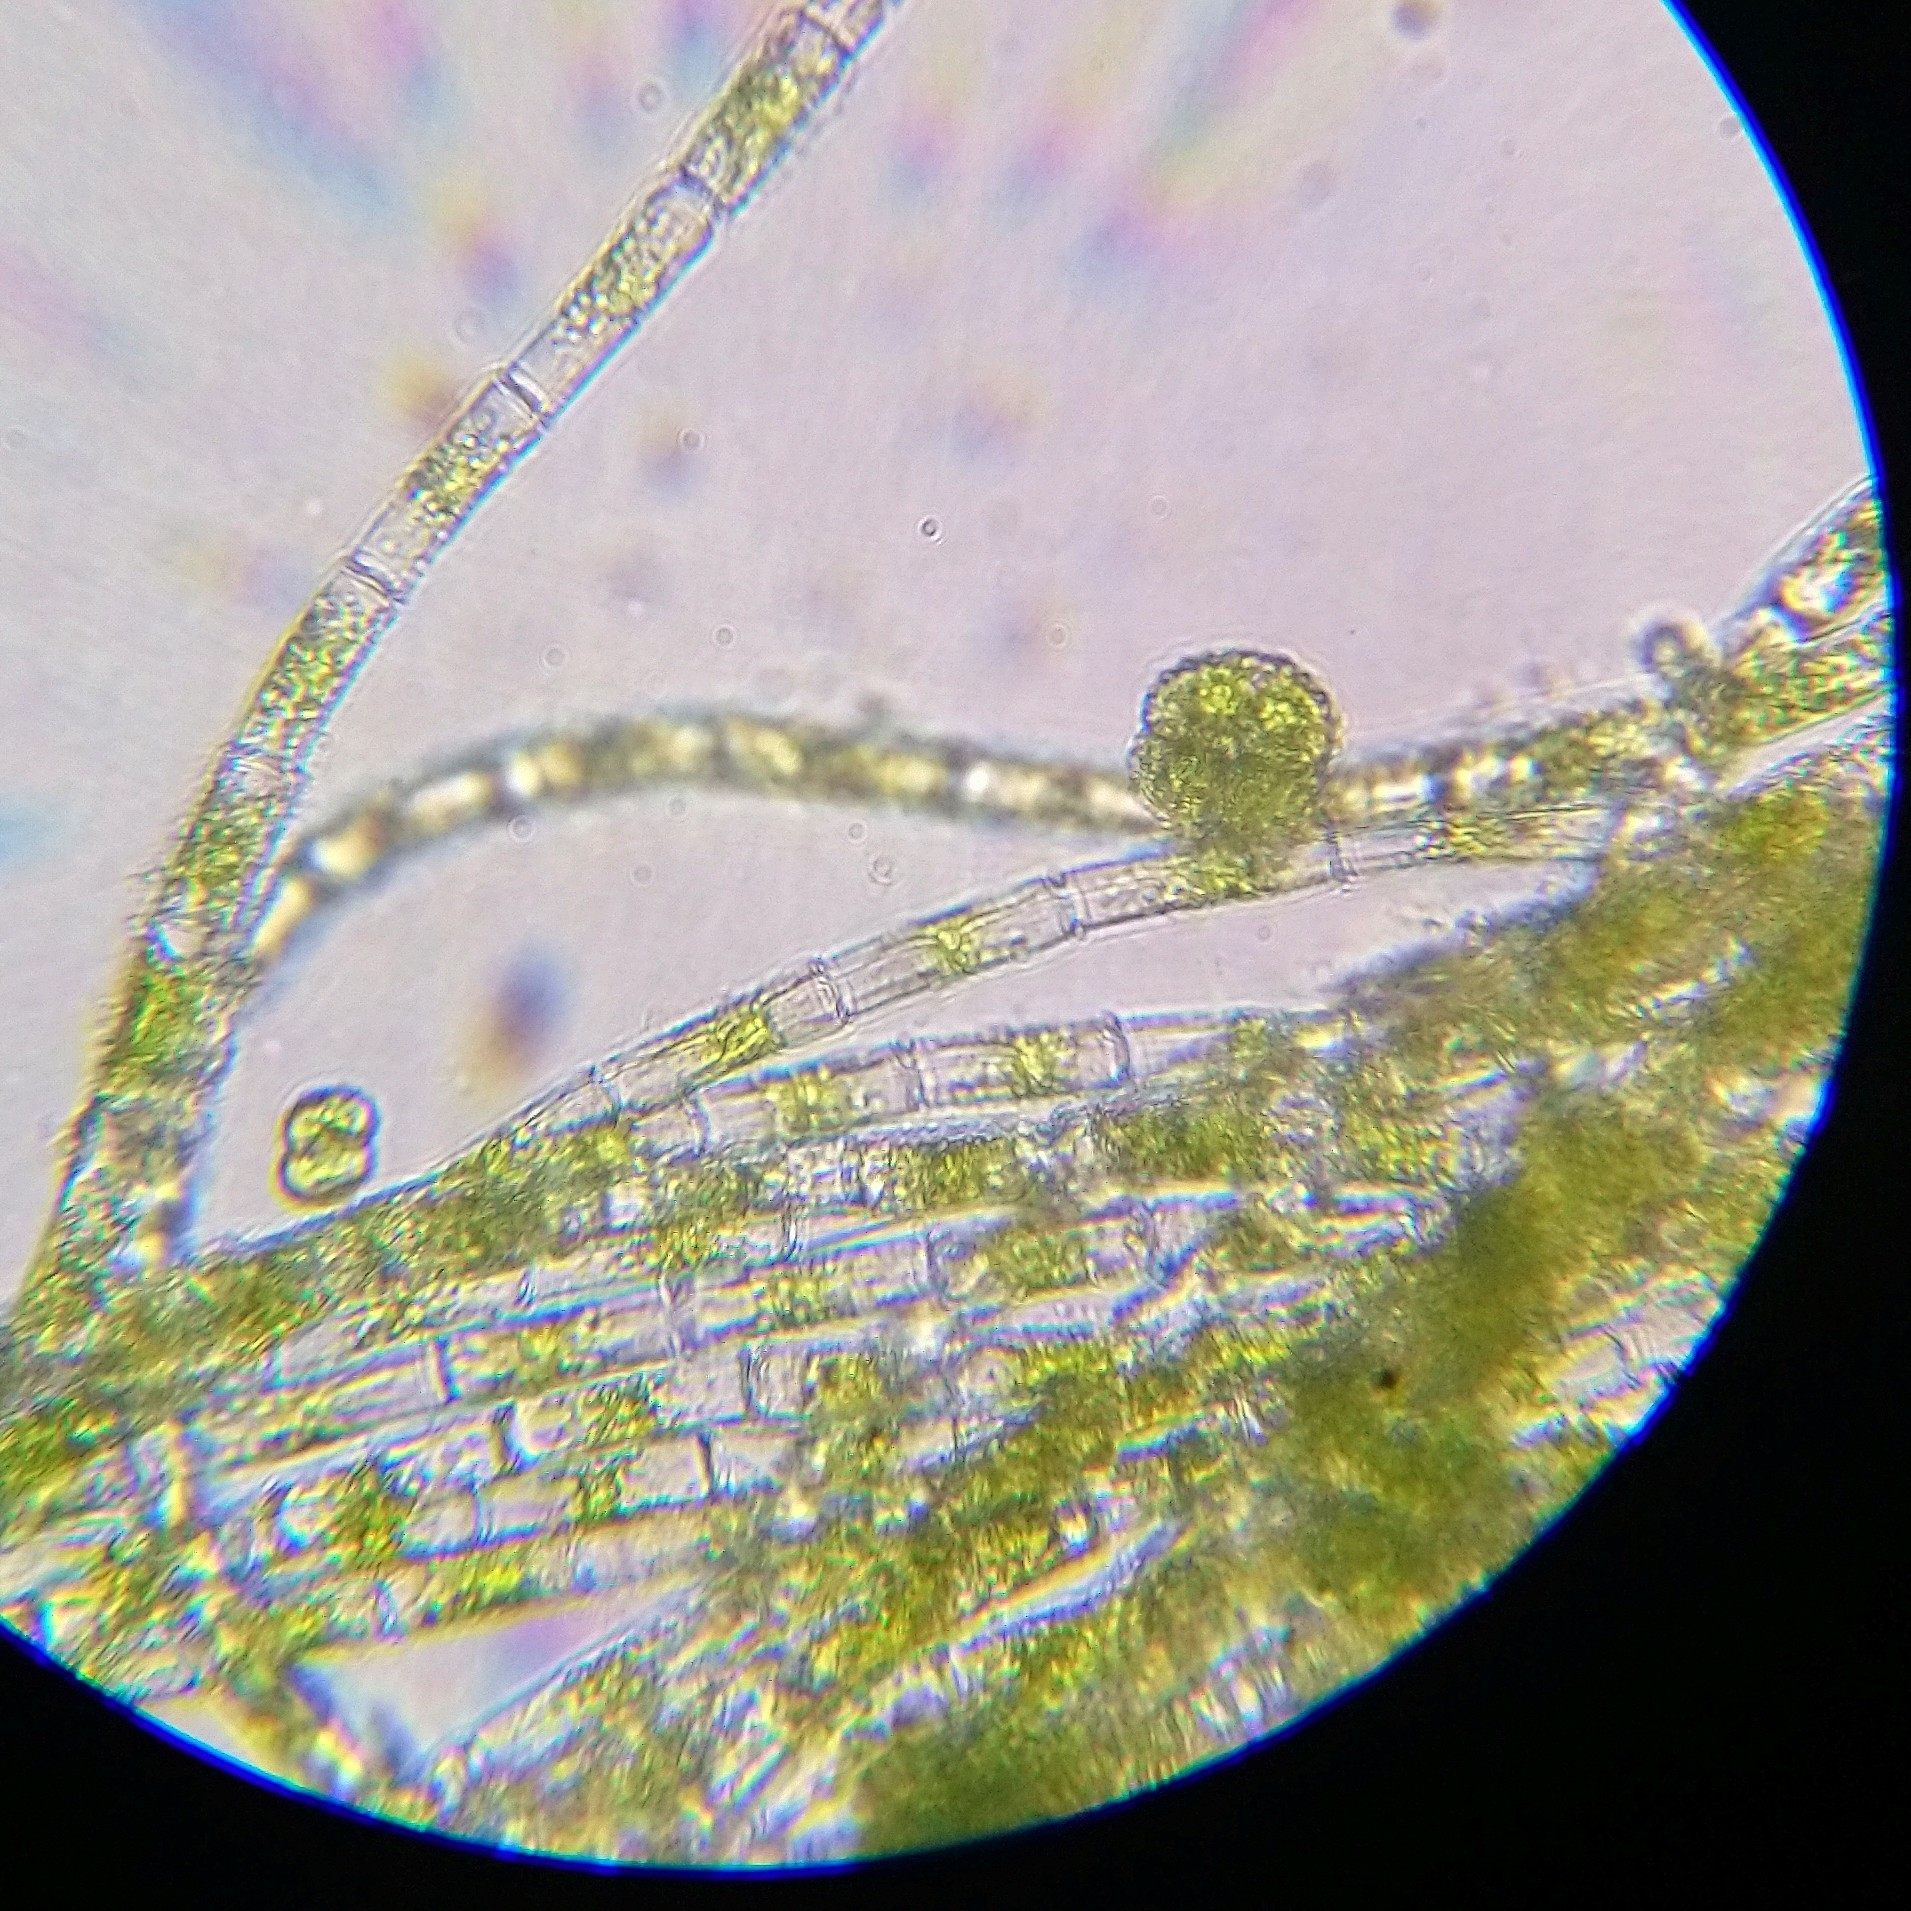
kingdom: Plantae
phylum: Chlorophyta
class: Chlorophyceae
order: Oedogoniales
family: Oedogoniaceae
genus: Oedogonium
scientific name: Oedogonium
